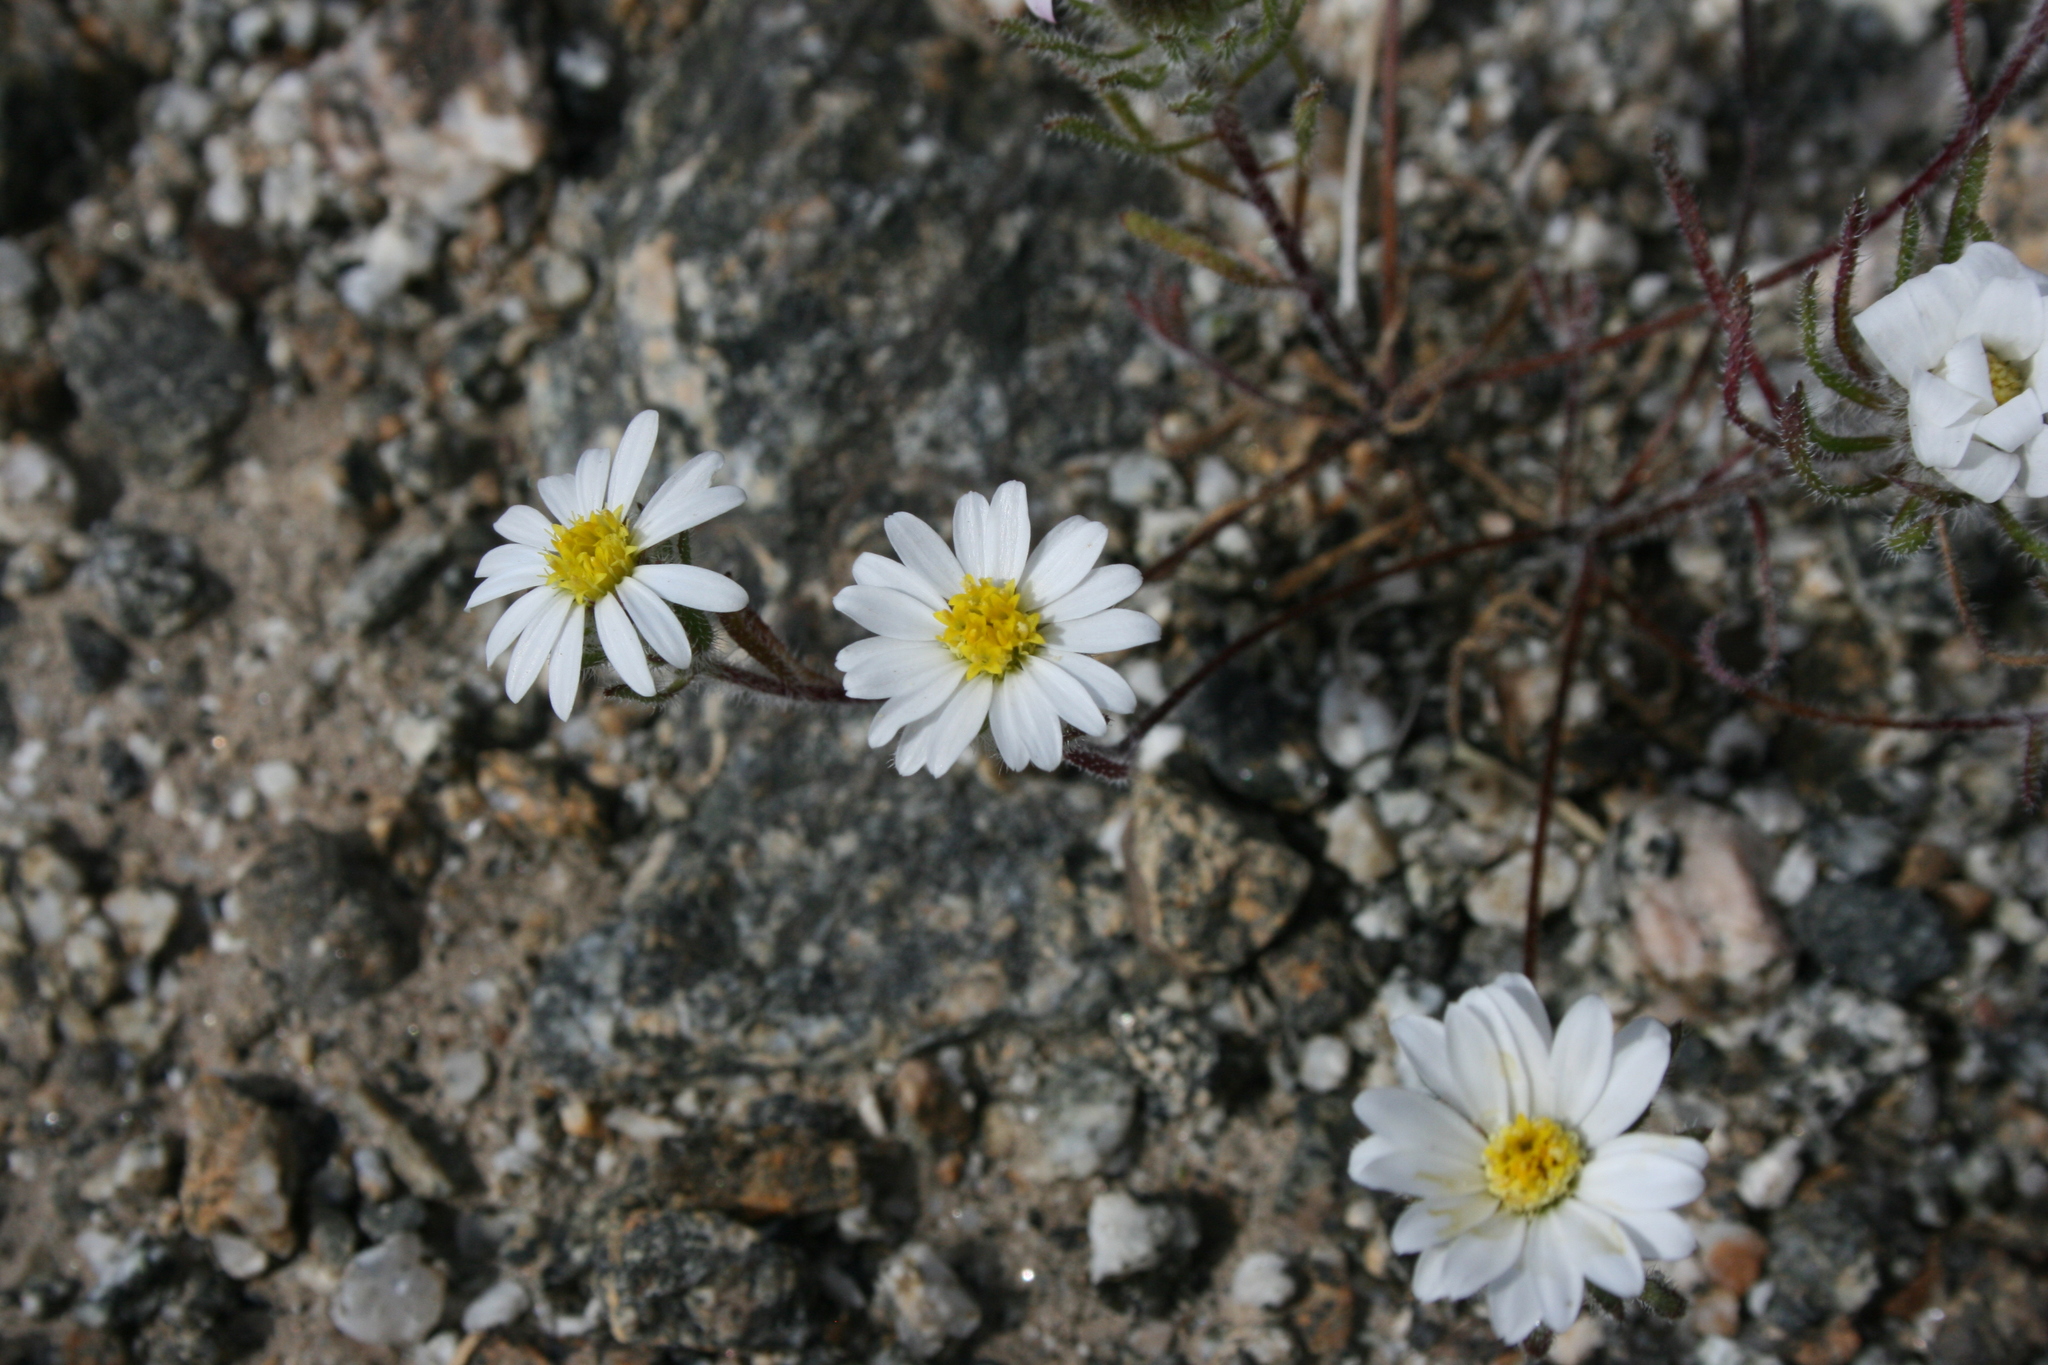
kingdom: Plantae
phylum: Tracheophyta
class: Magnoliopsida
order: Asterales
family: Asteraceae
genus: Monoptilon
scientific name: Monoptilon bellioides
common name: Bristly desertstar
